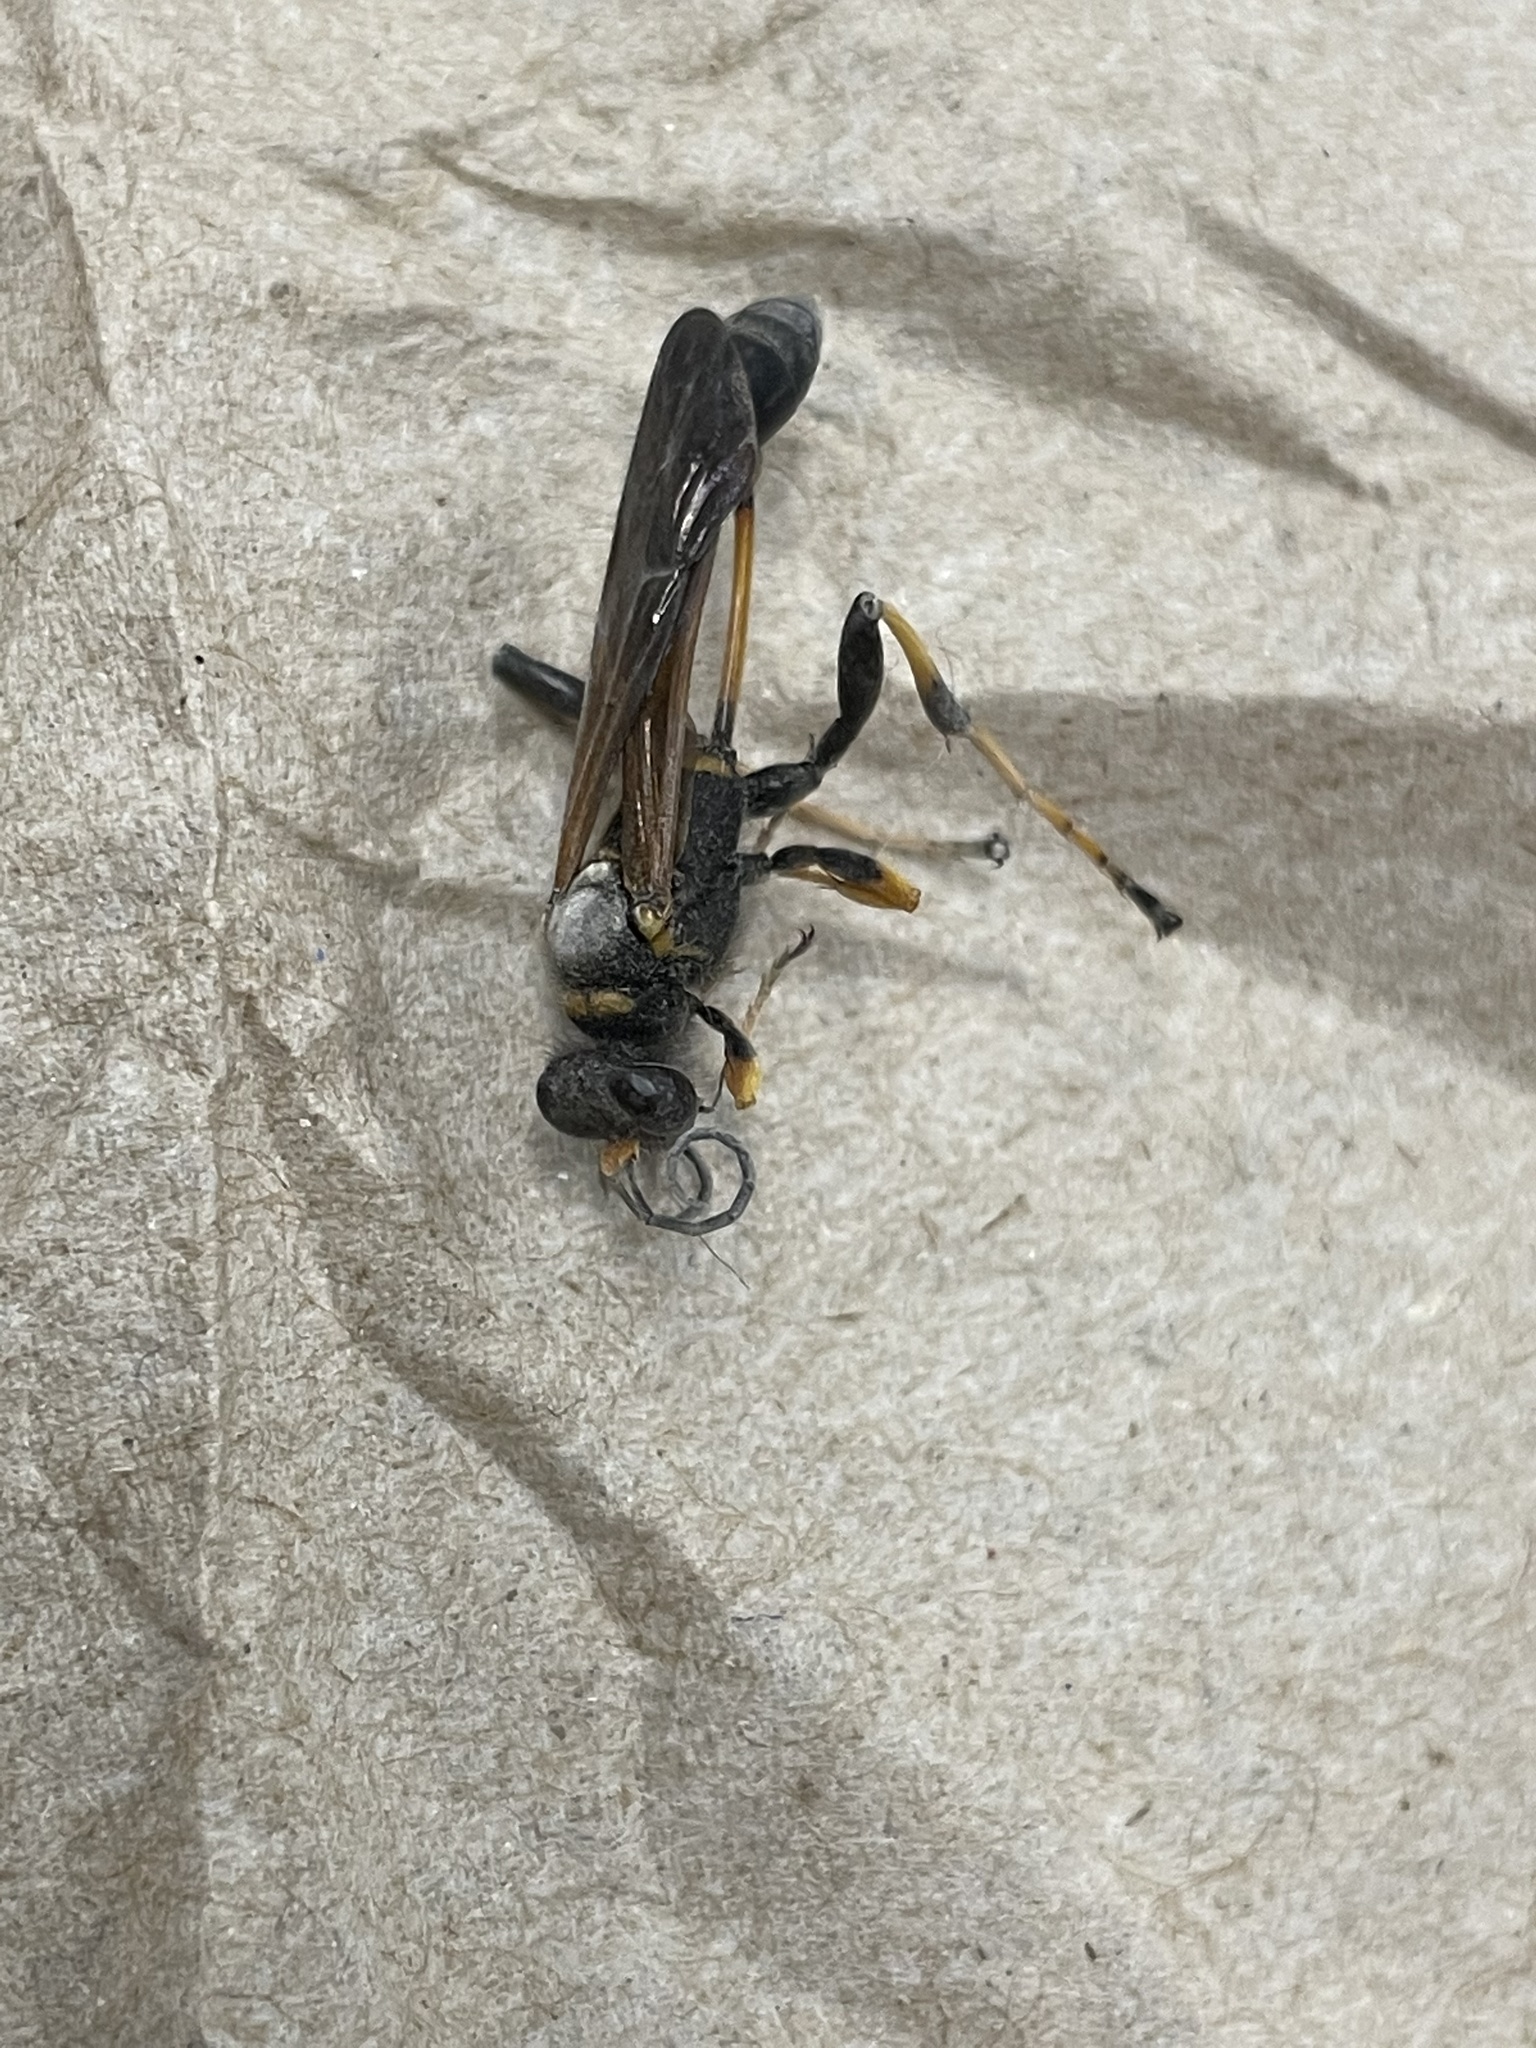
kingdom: Animalia
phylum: Arthropoda
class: Insecta
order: Hymenoptera
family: Sphecidae
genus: Sceliphron
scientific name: Sceliphron caementarium
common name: Mud dauber
